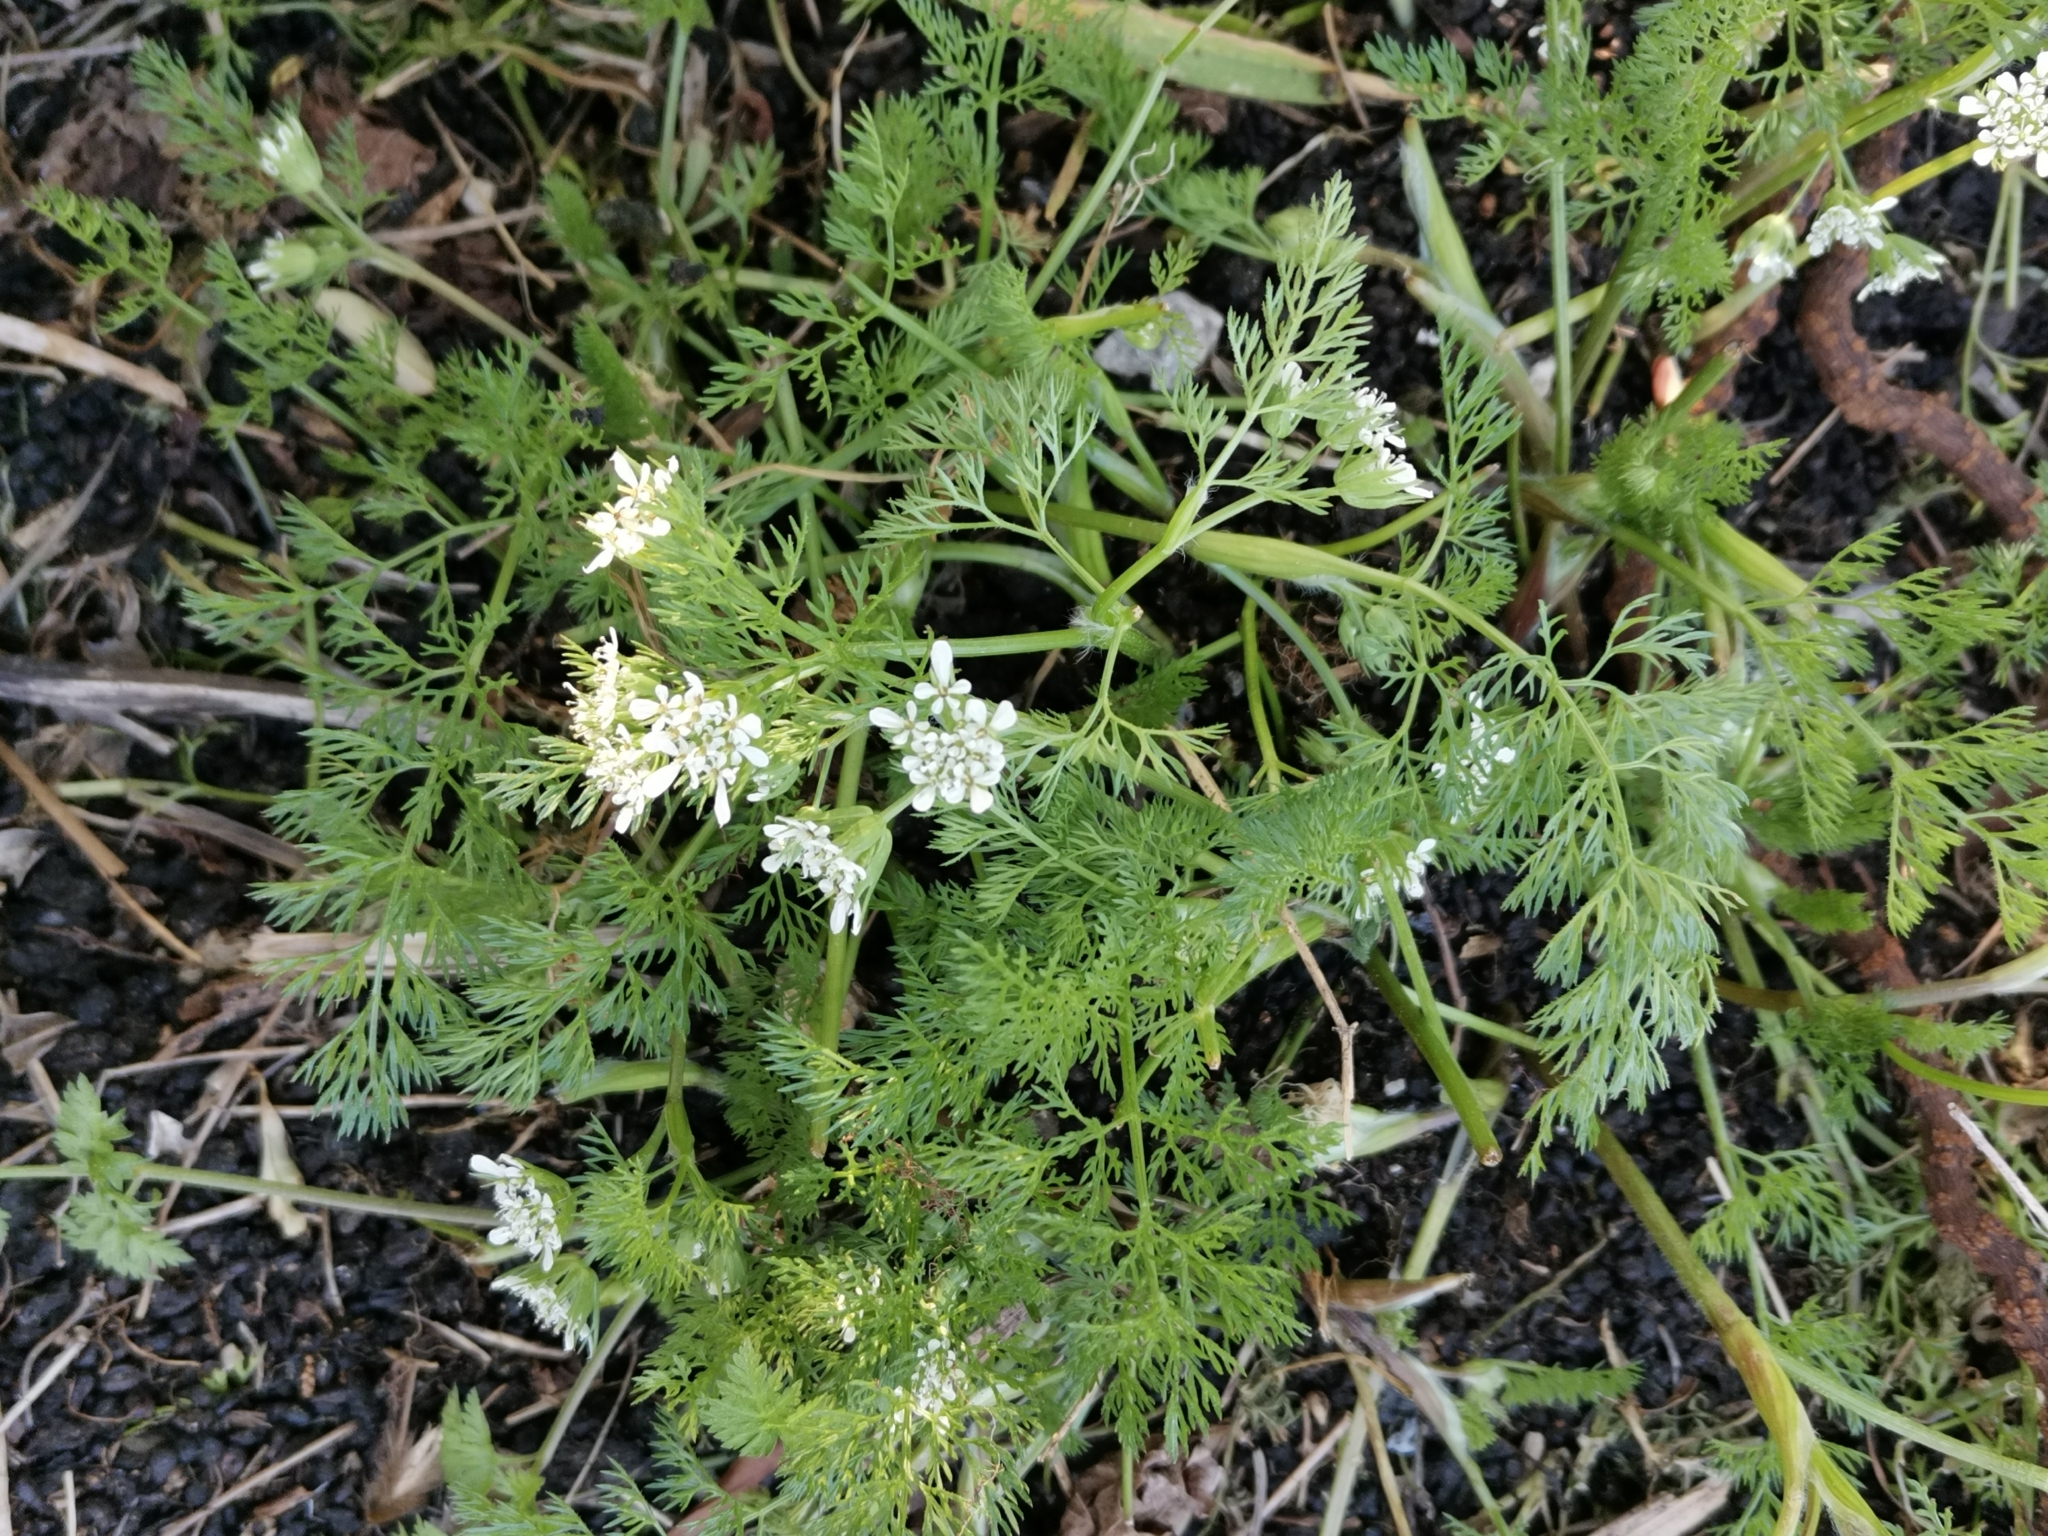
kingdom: Plantae
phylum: Tracheophyta
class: Magnoliopsida
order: Apiales
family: Apiaceae
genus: Scandix
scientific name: Scandix pecten-veneris
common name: Shepherd's-needle
